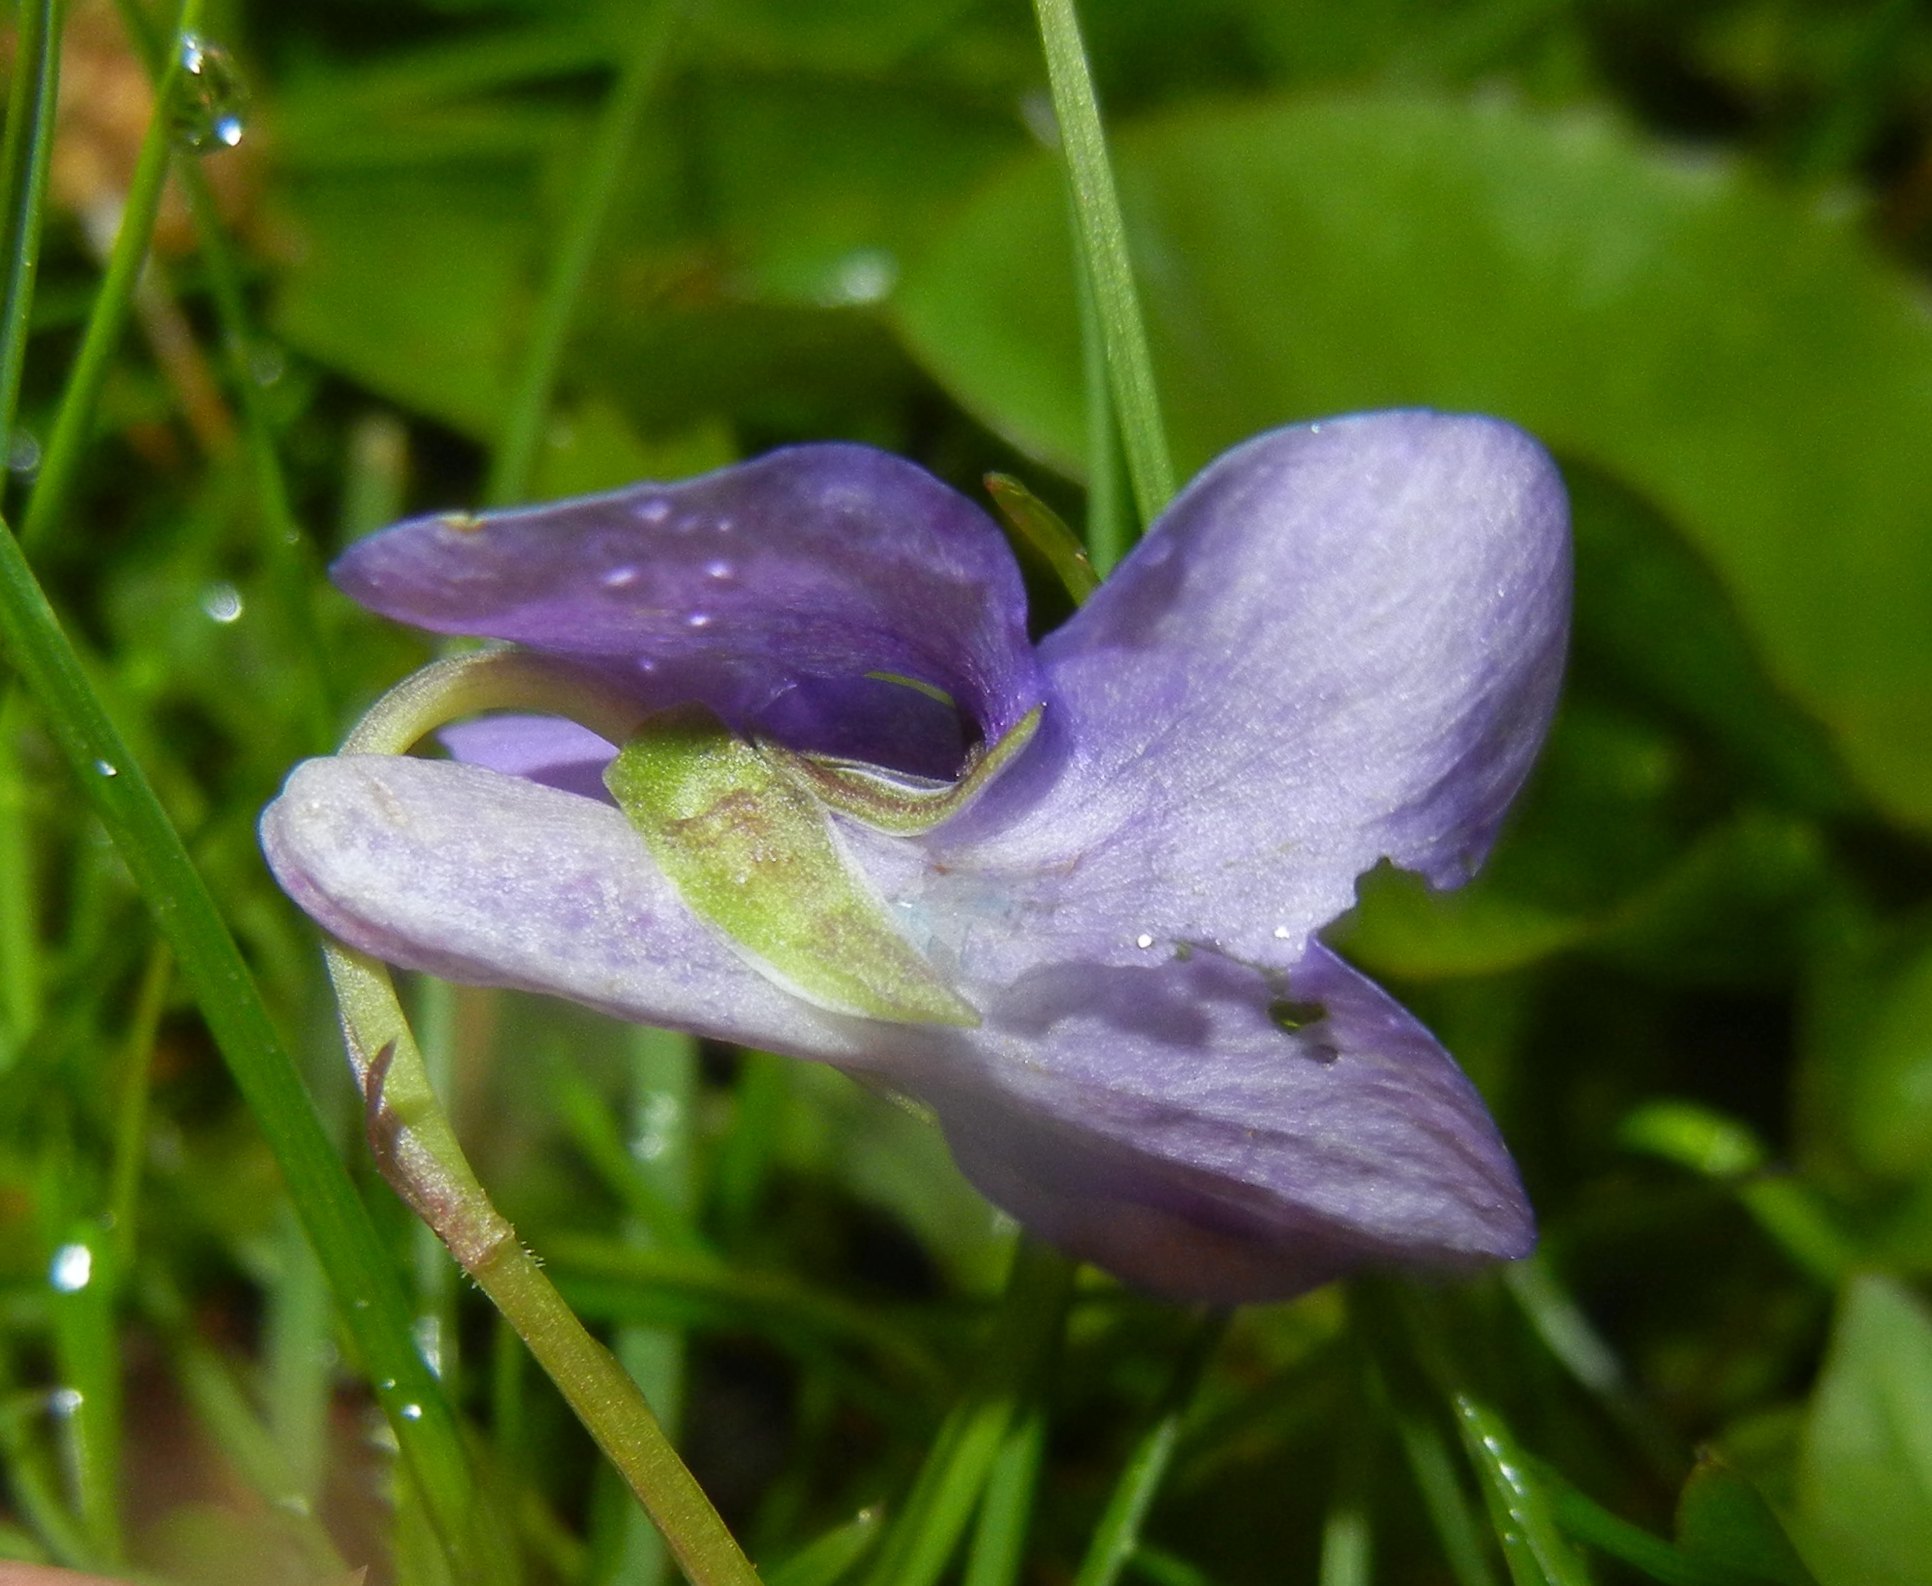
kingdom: Plantae
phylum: Tracheophyta
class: Magnoliopsida
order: Malpighiales
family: Violaceae
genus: Viola
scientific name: Viola riviniana
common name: Common dog-violet
